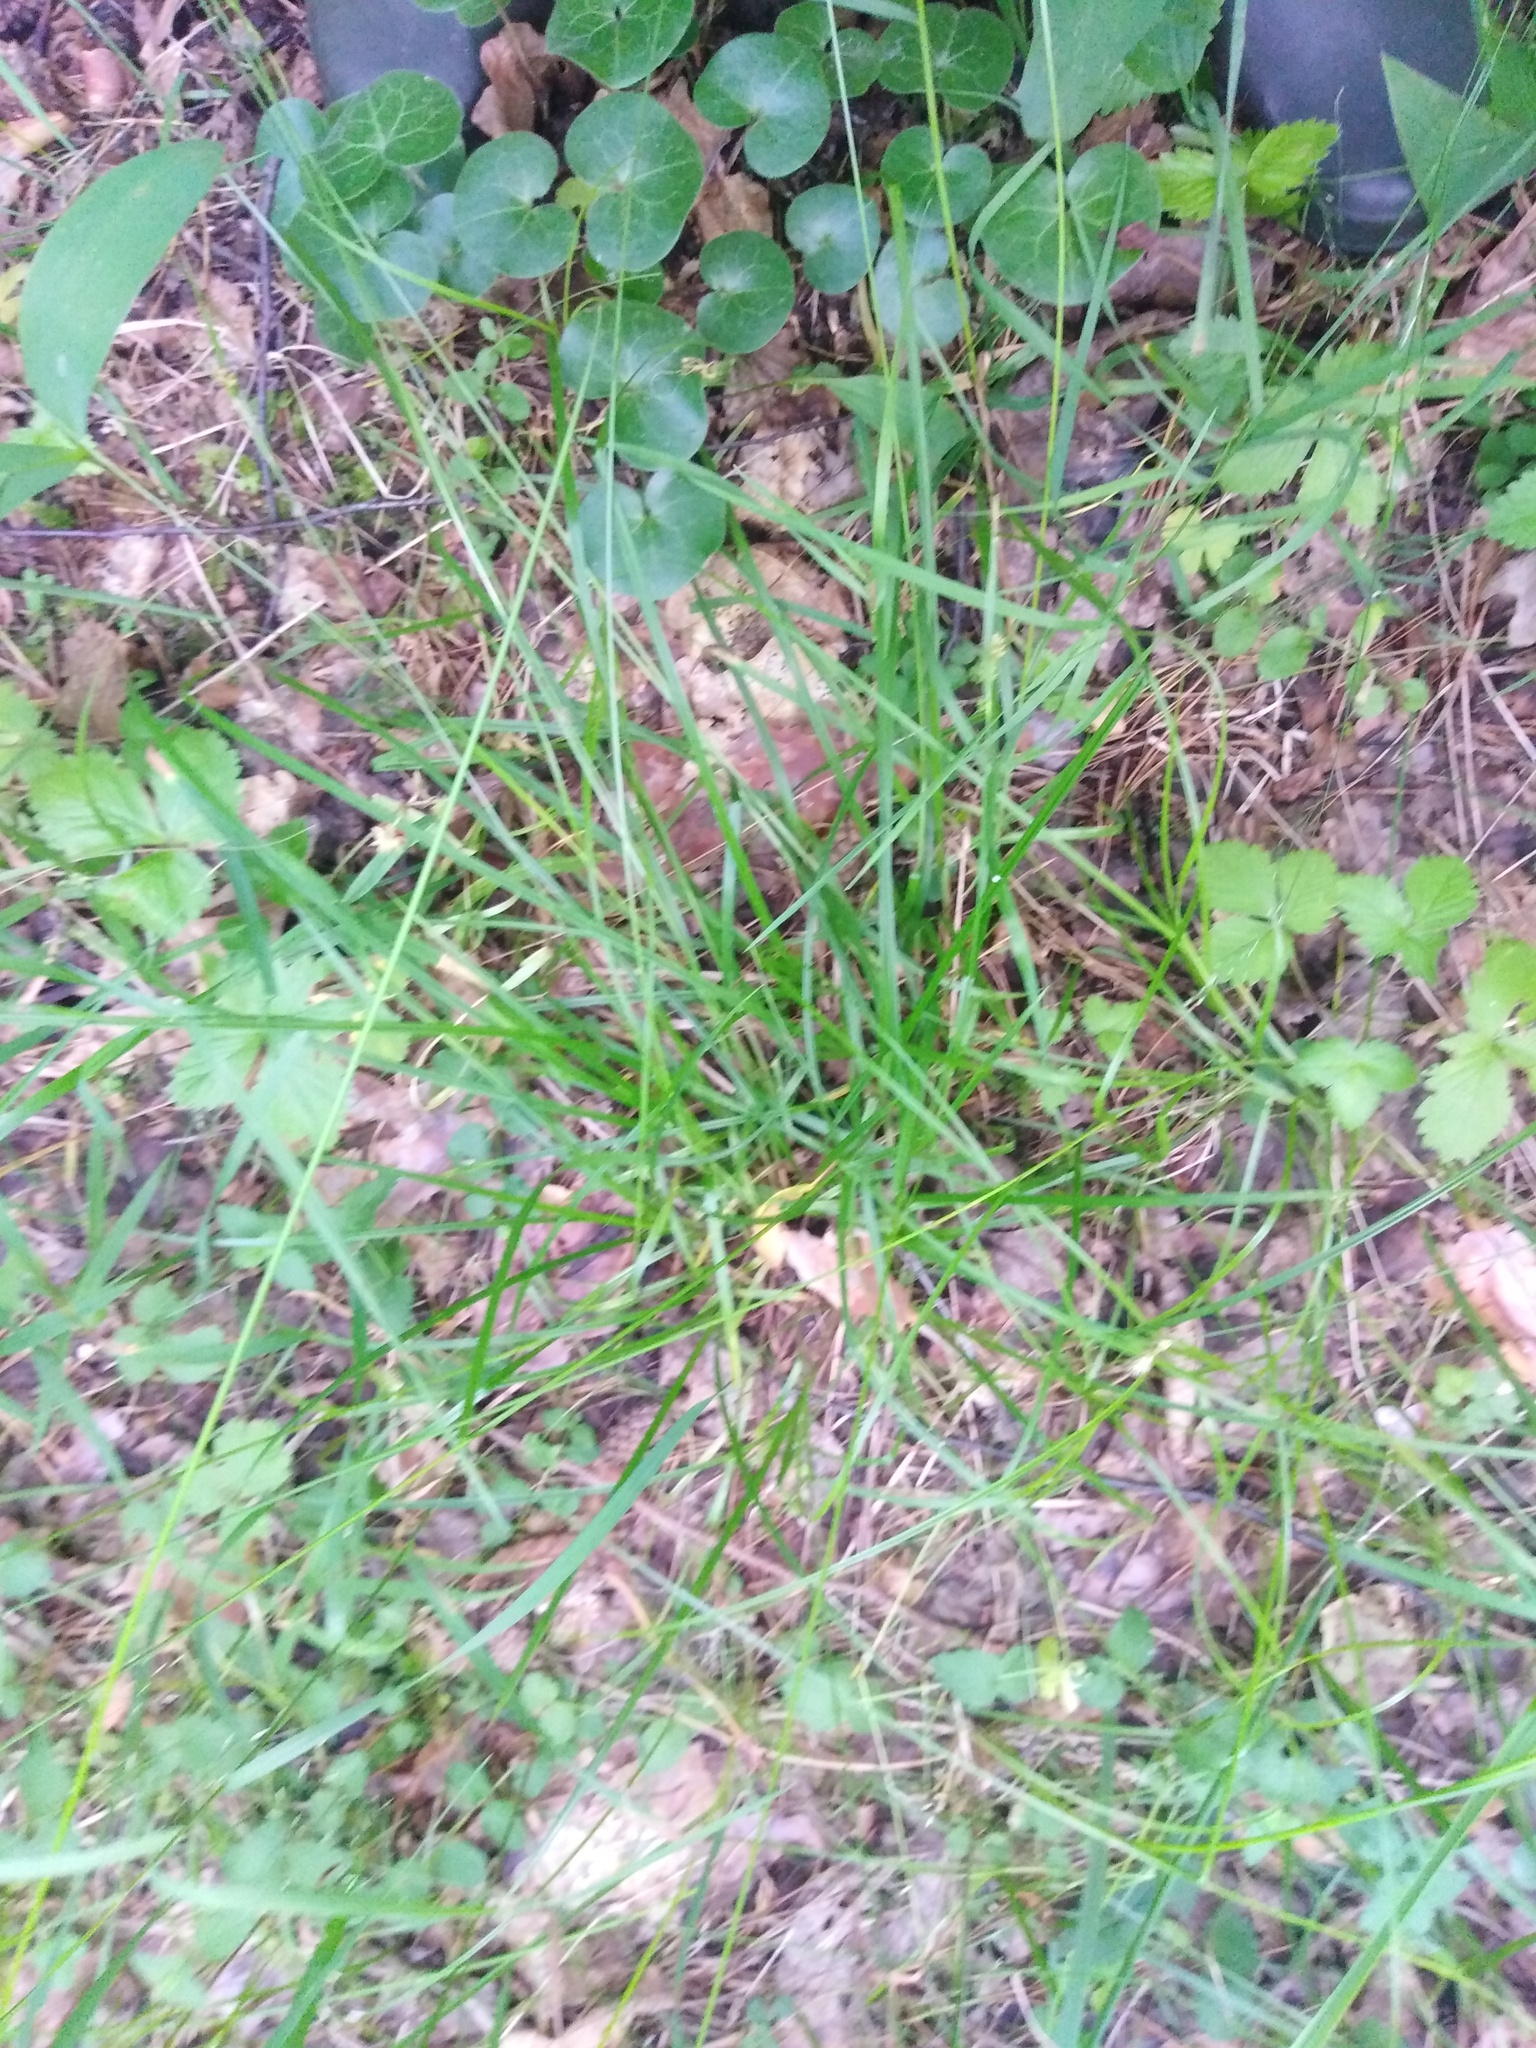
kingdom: Plantae
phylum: Tracheophyta
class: Liliopsida
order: Poales
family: Cyperaceae
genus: Carex
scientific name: Carex pallescens
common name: Pale sedge
